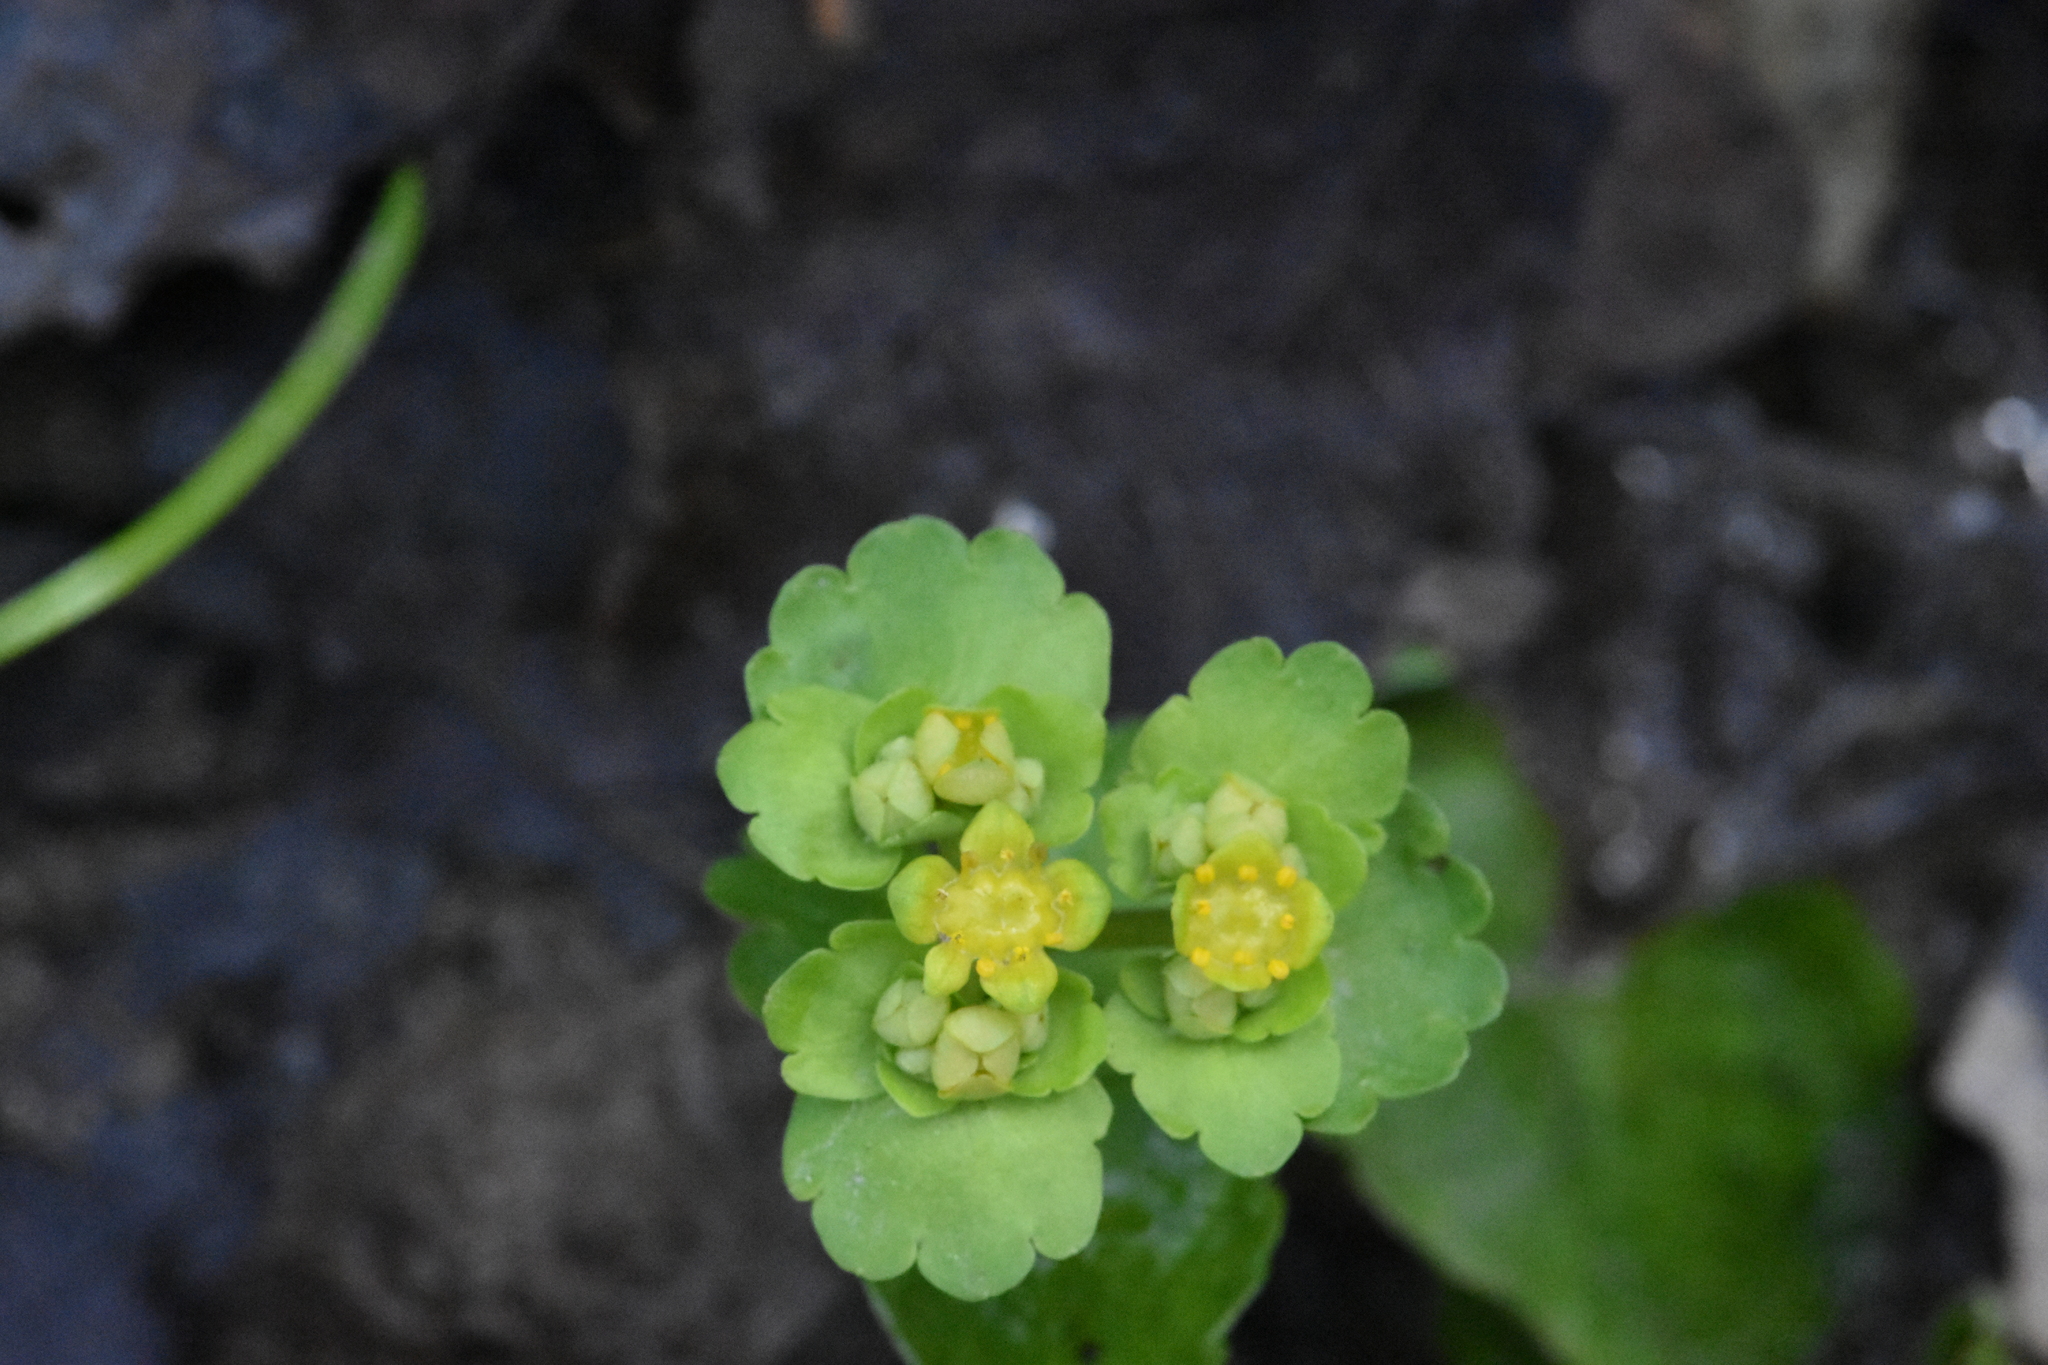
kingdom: Plantae
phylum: Tracheophyta
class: Magnoliopsida
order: Saxifragales
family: Saxifragaceae
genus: Chrysosplenium
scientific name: Chrysosplenium alternifolium
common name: Alternate-leaved golden-saxifrage
